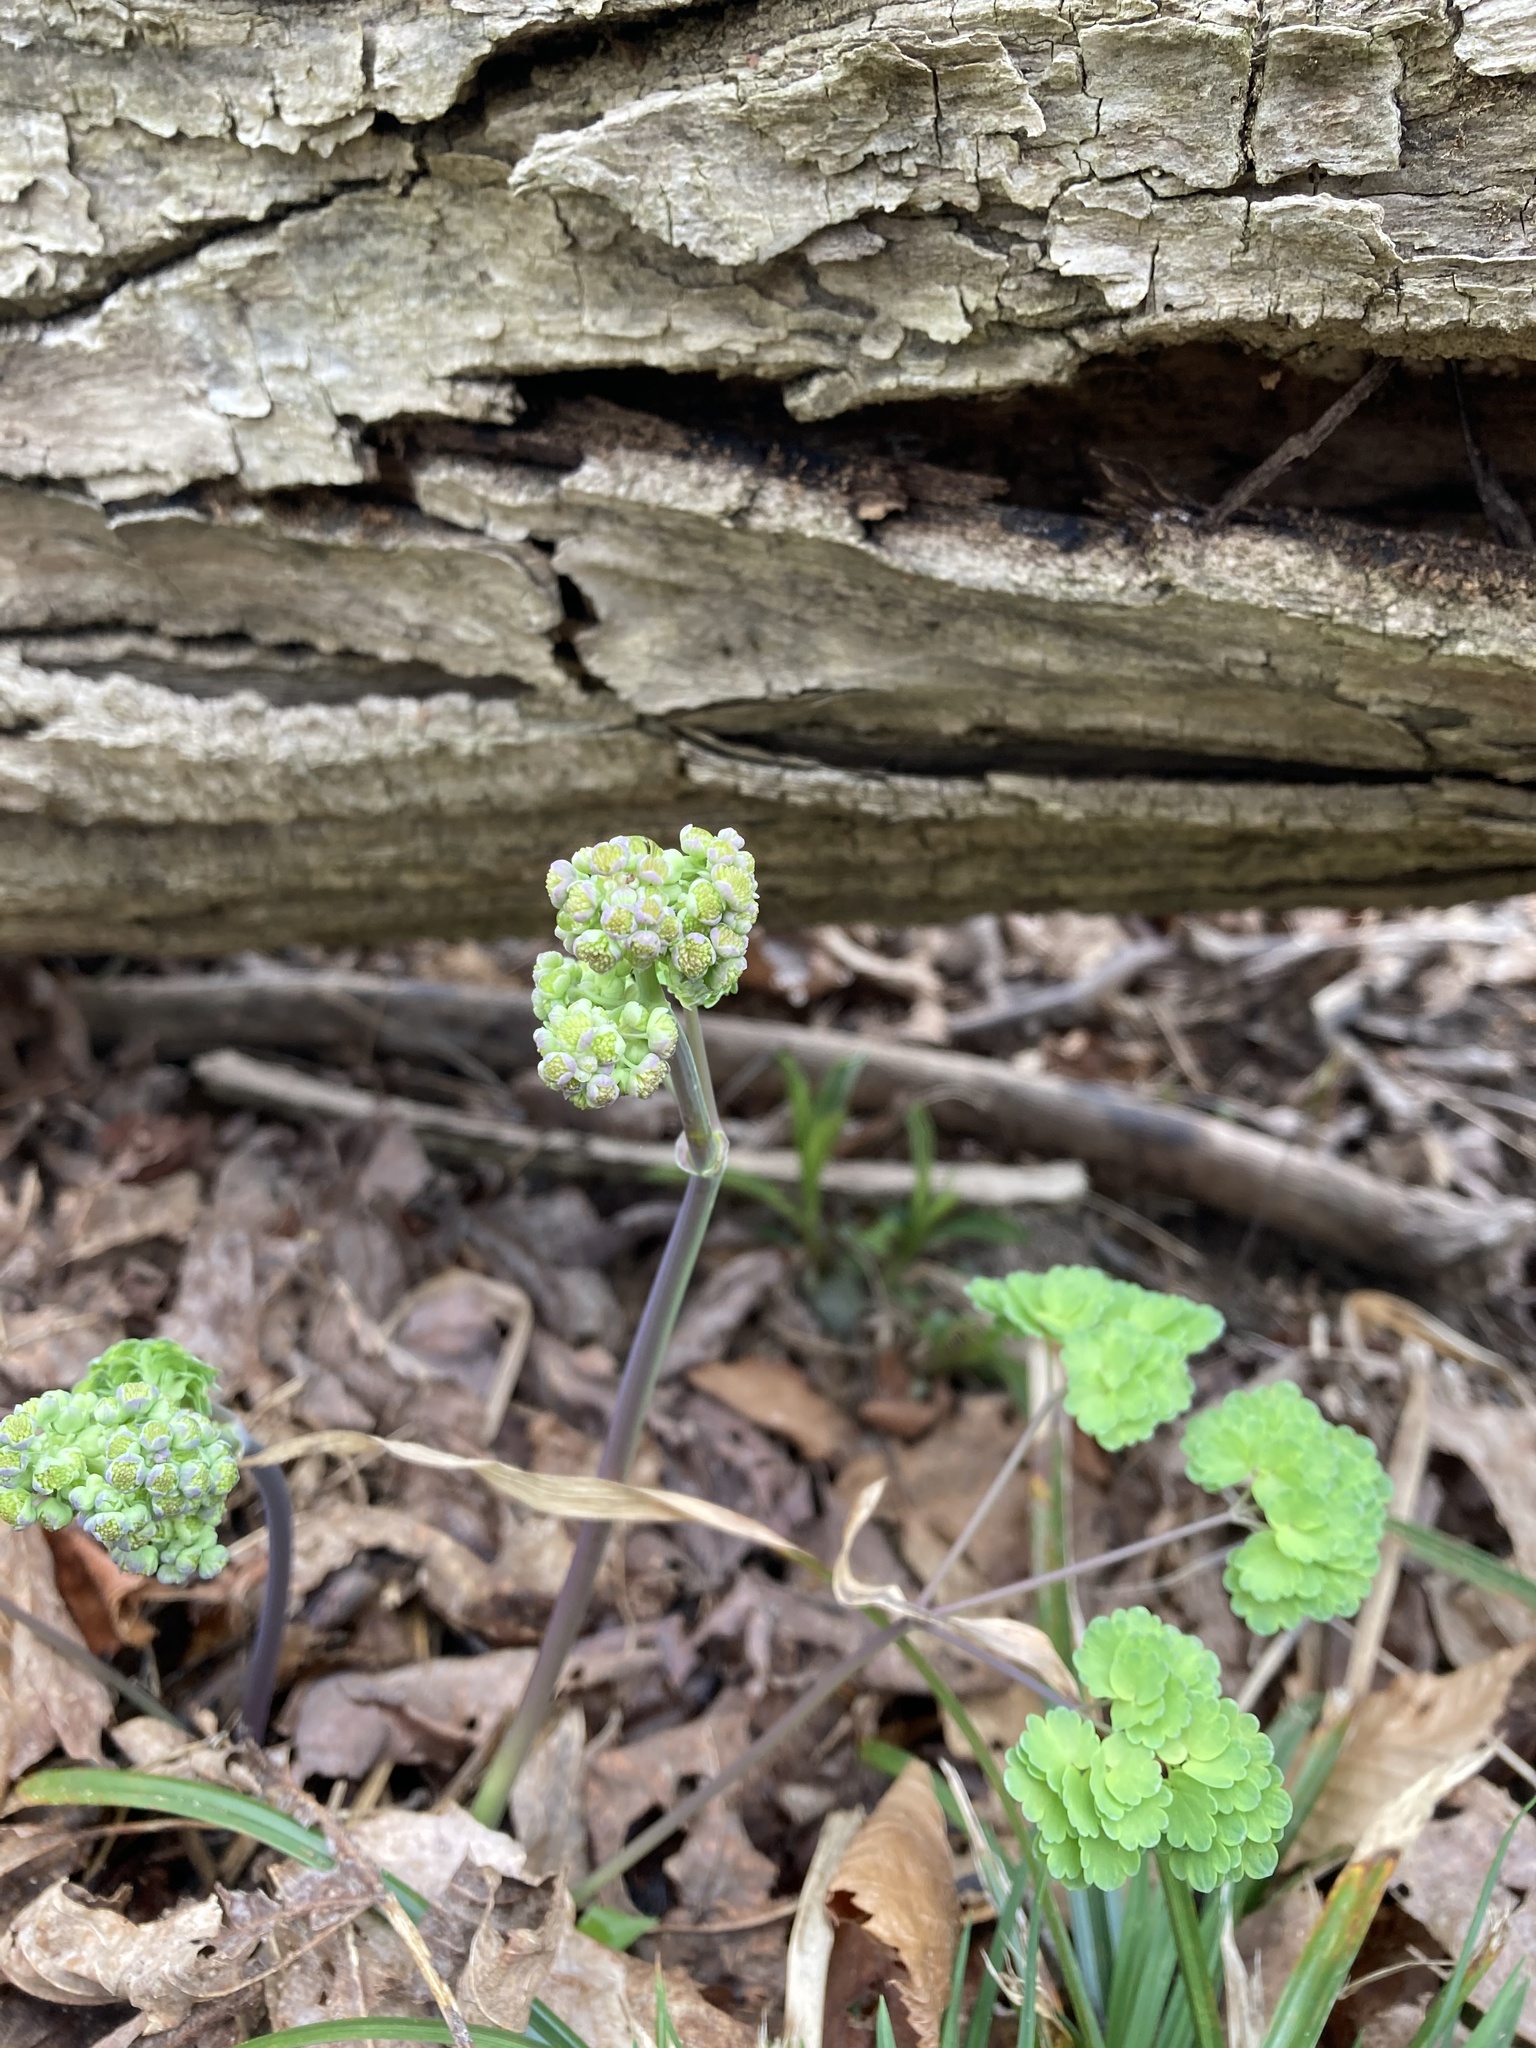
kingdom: Plantae
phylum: Tracheophyta
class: Magnoliopsida
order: Ranunculales
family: Ranunculaceae
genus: Thalictrum
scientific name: Thalictrum dioicum
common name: Early meadow-rue
